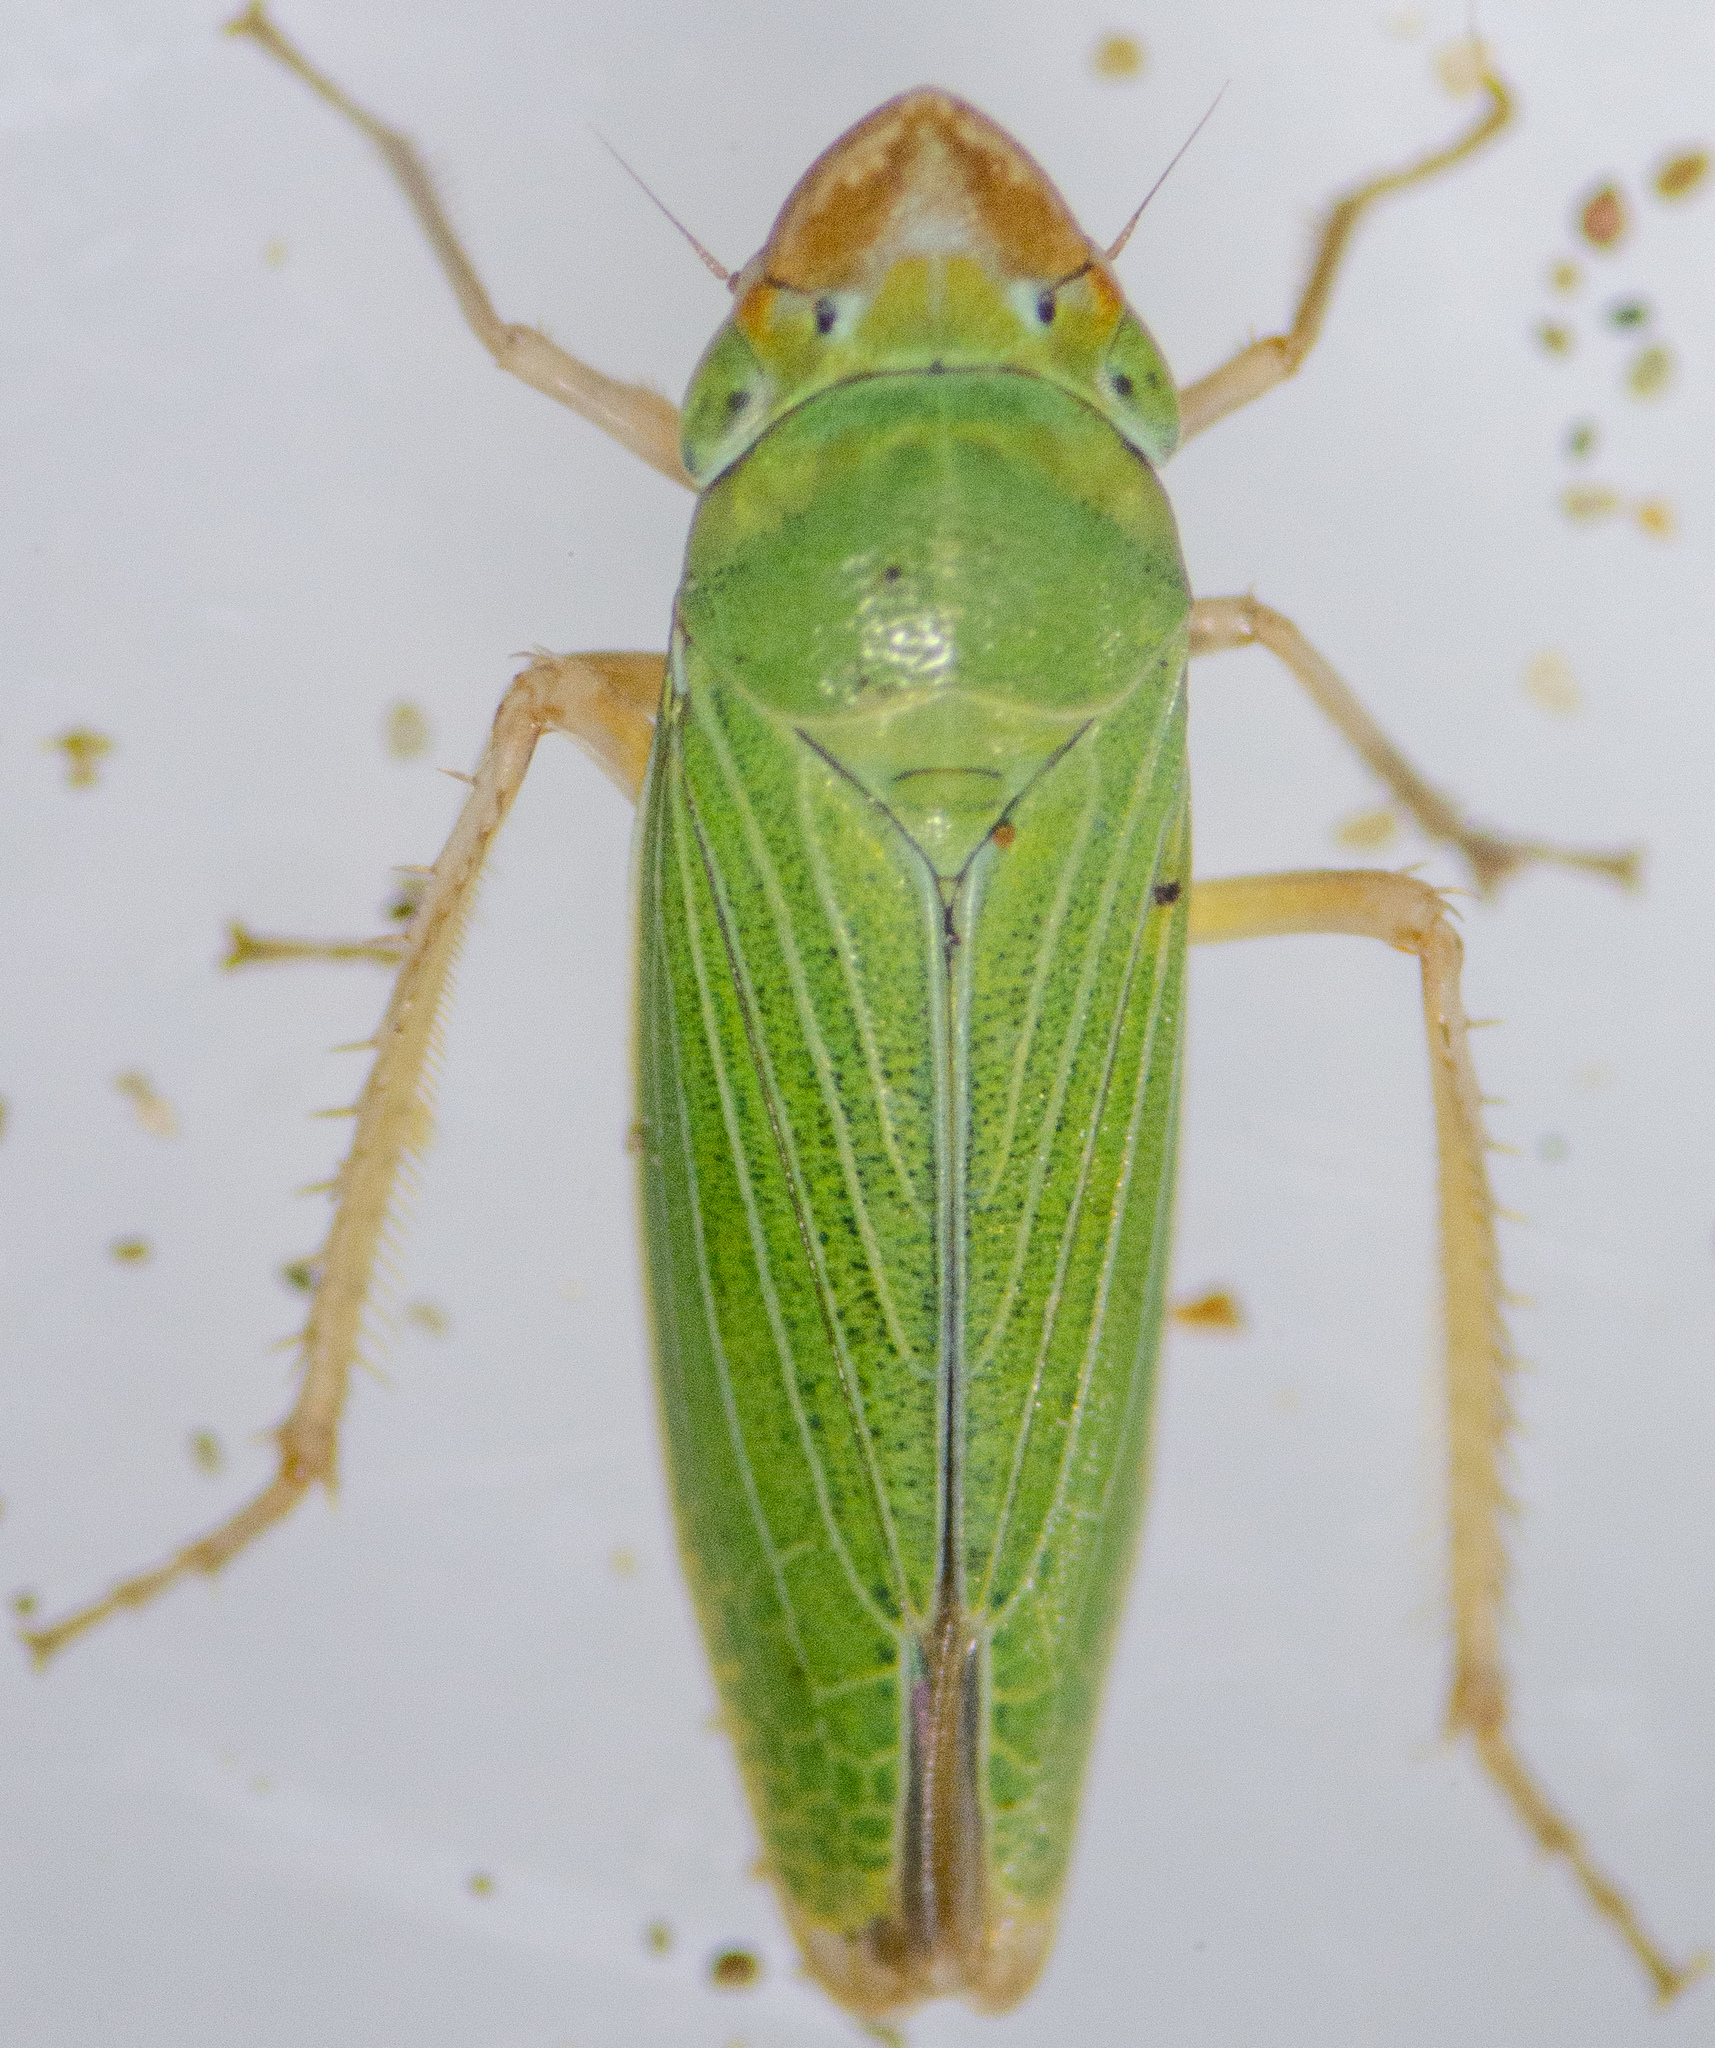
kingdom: Animalia
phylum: Arthropoda
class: Insecta
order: Hemiptera
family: Cicadellidae
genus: Xyphon
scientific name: Xyphon fulgidum
